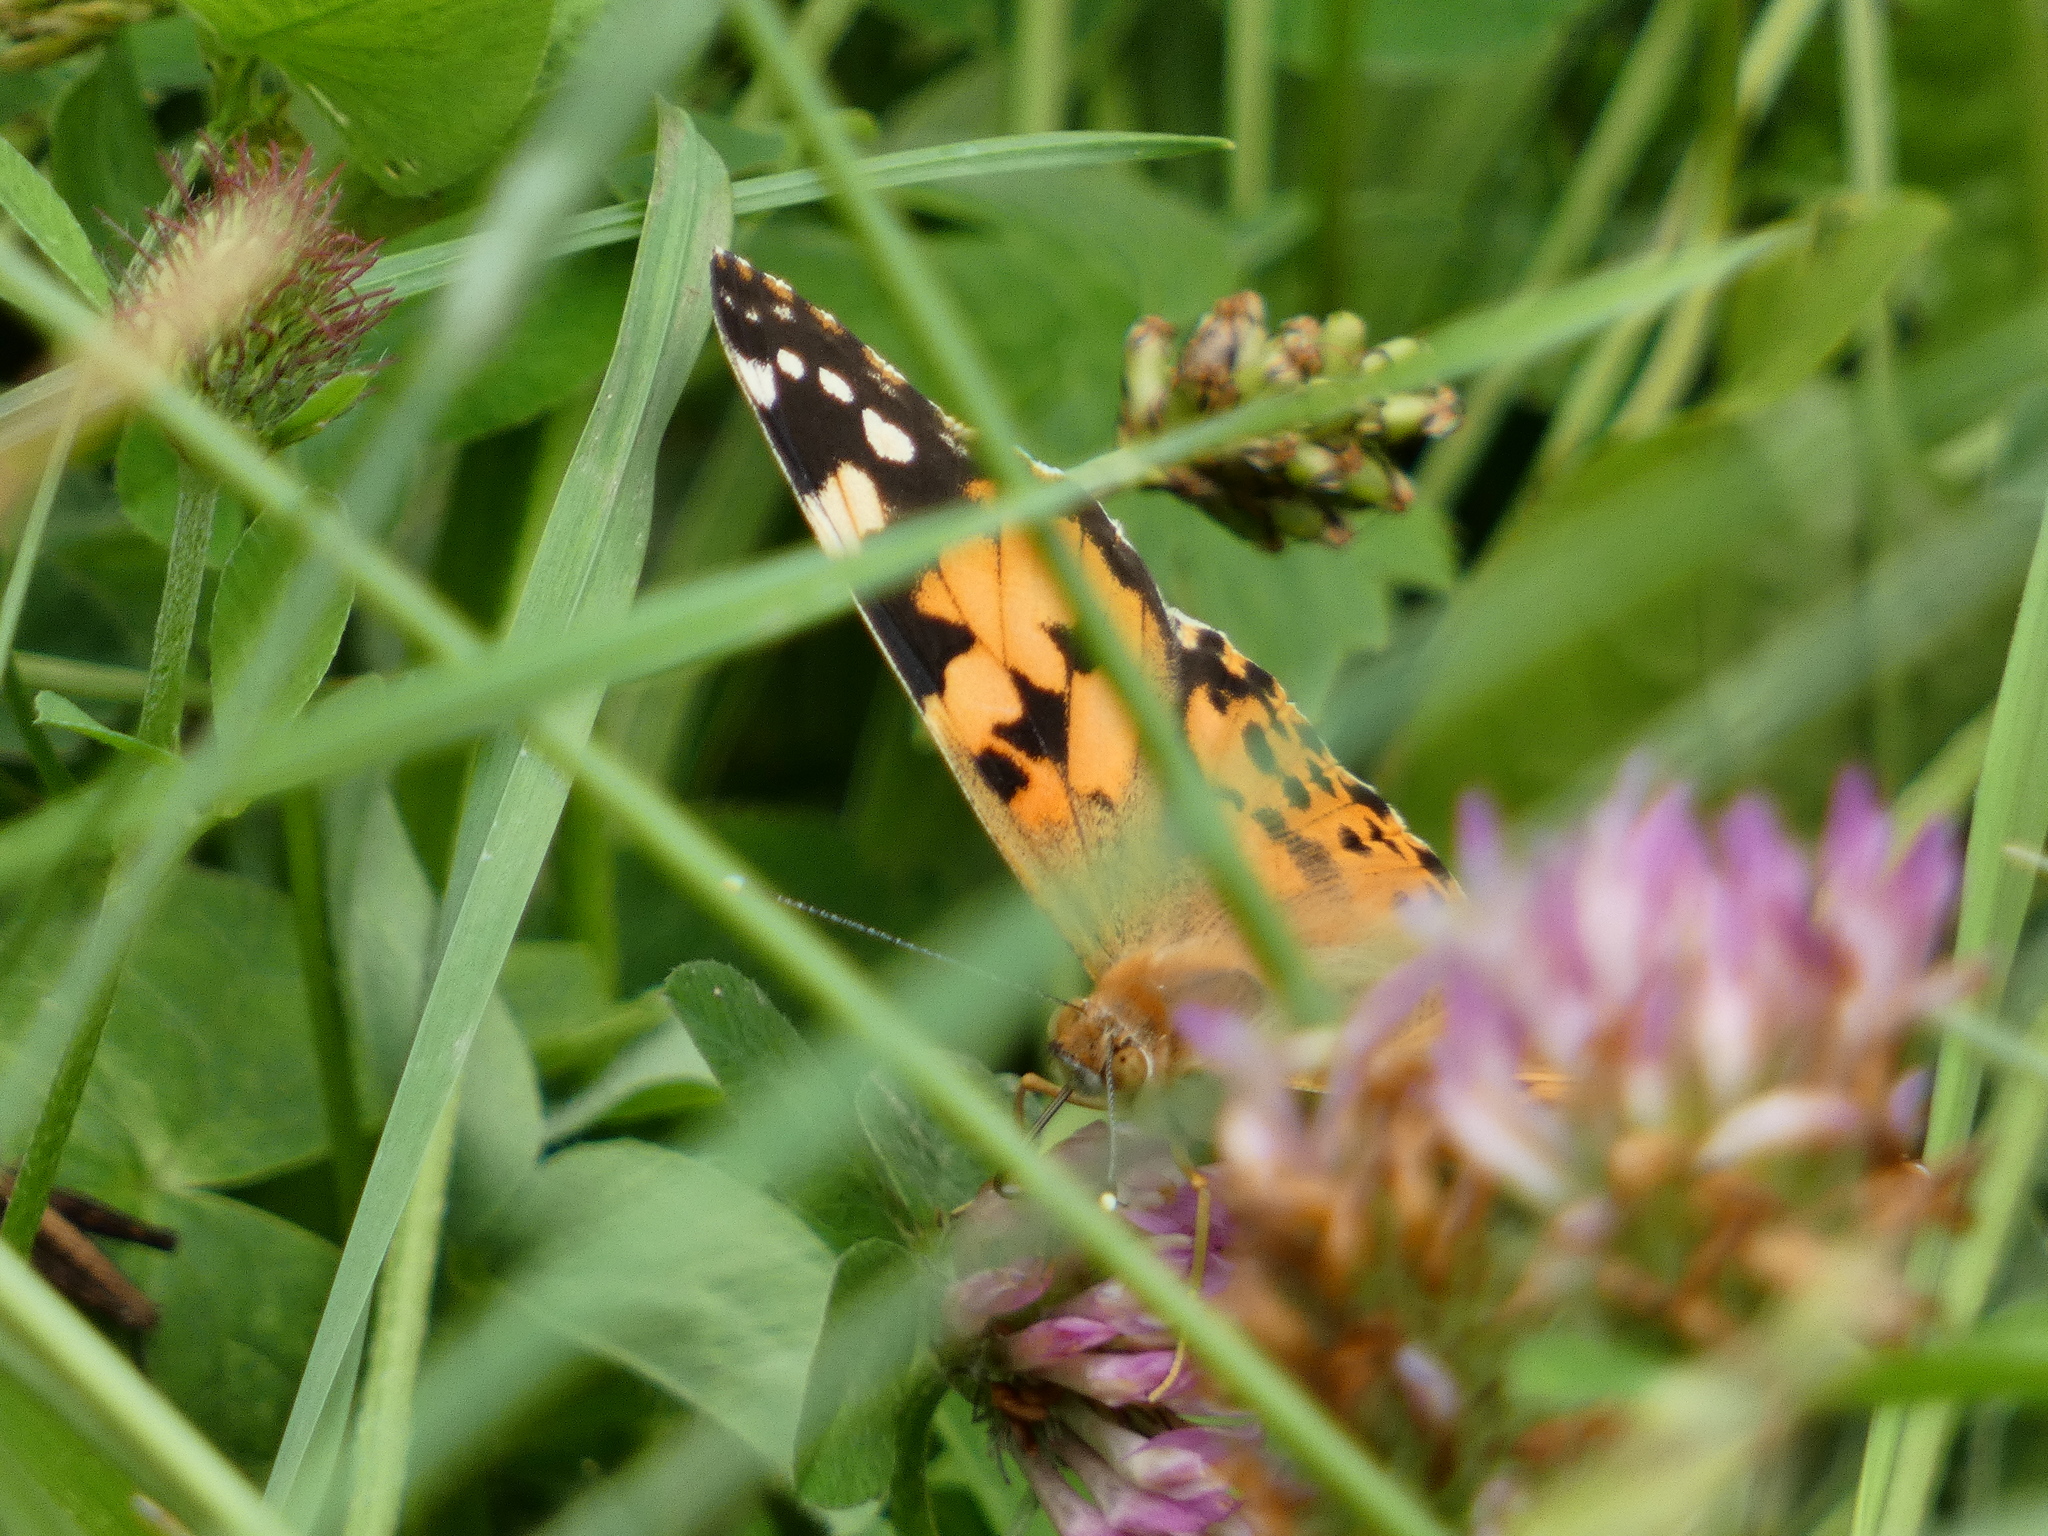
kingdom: Animalia
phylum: Arthropoda
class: Insecta
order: Lepidoptera
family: Nymphalidae
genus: Vanessa
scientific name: Vanessa cardui
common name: Painted lady
